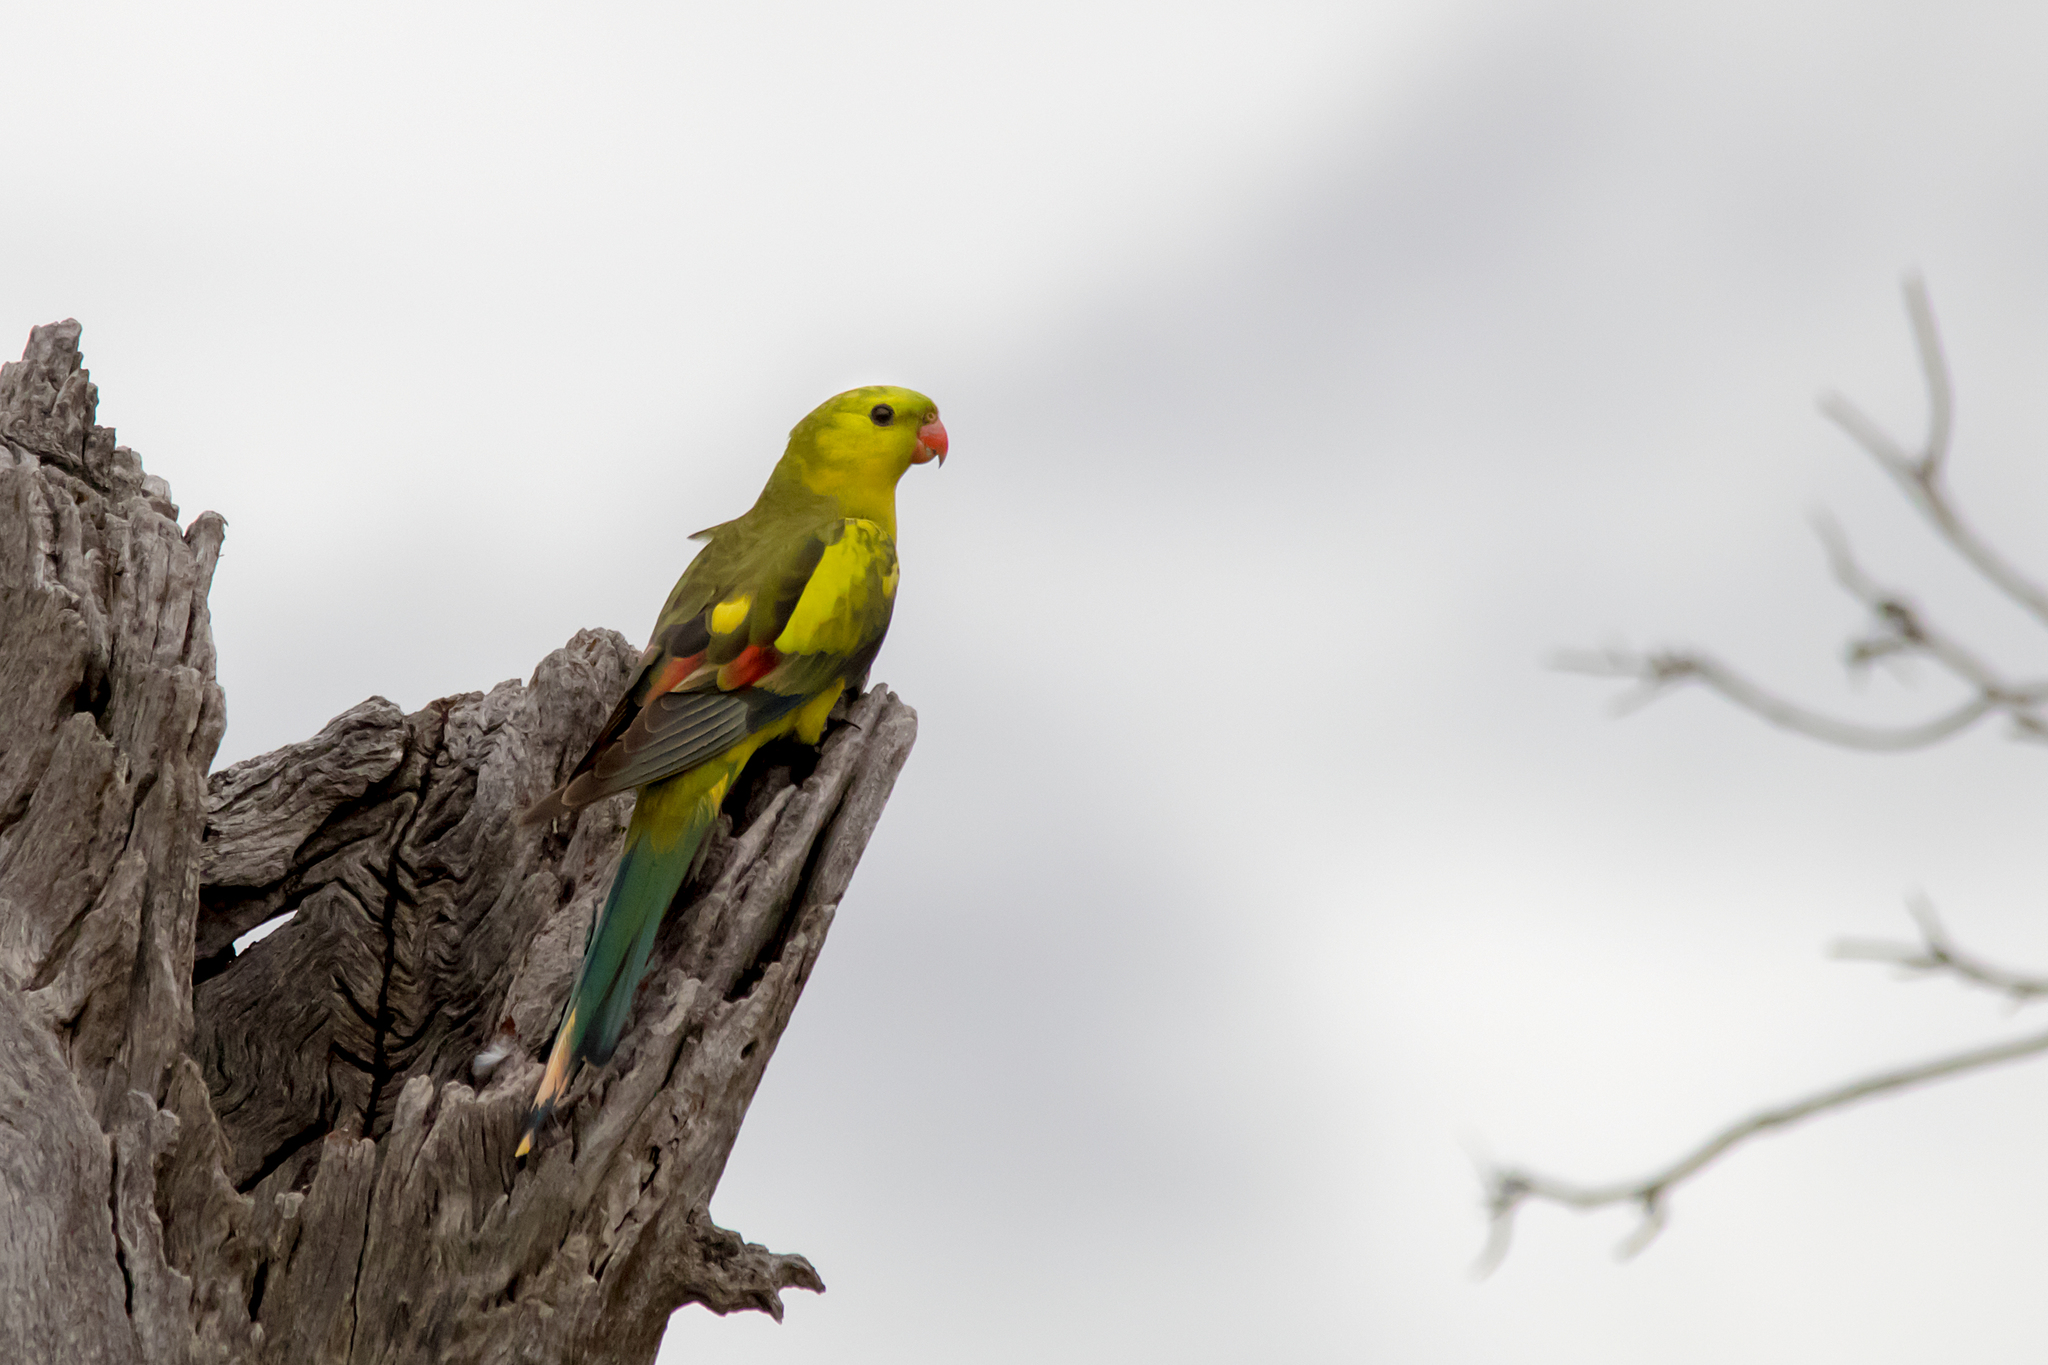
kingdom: Animalia
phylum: Chordata
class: Aves
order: Psittaciformes
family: Psittacidae
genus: Polytelis
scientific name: Polytelis anthopeplus
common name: Regent parrot
